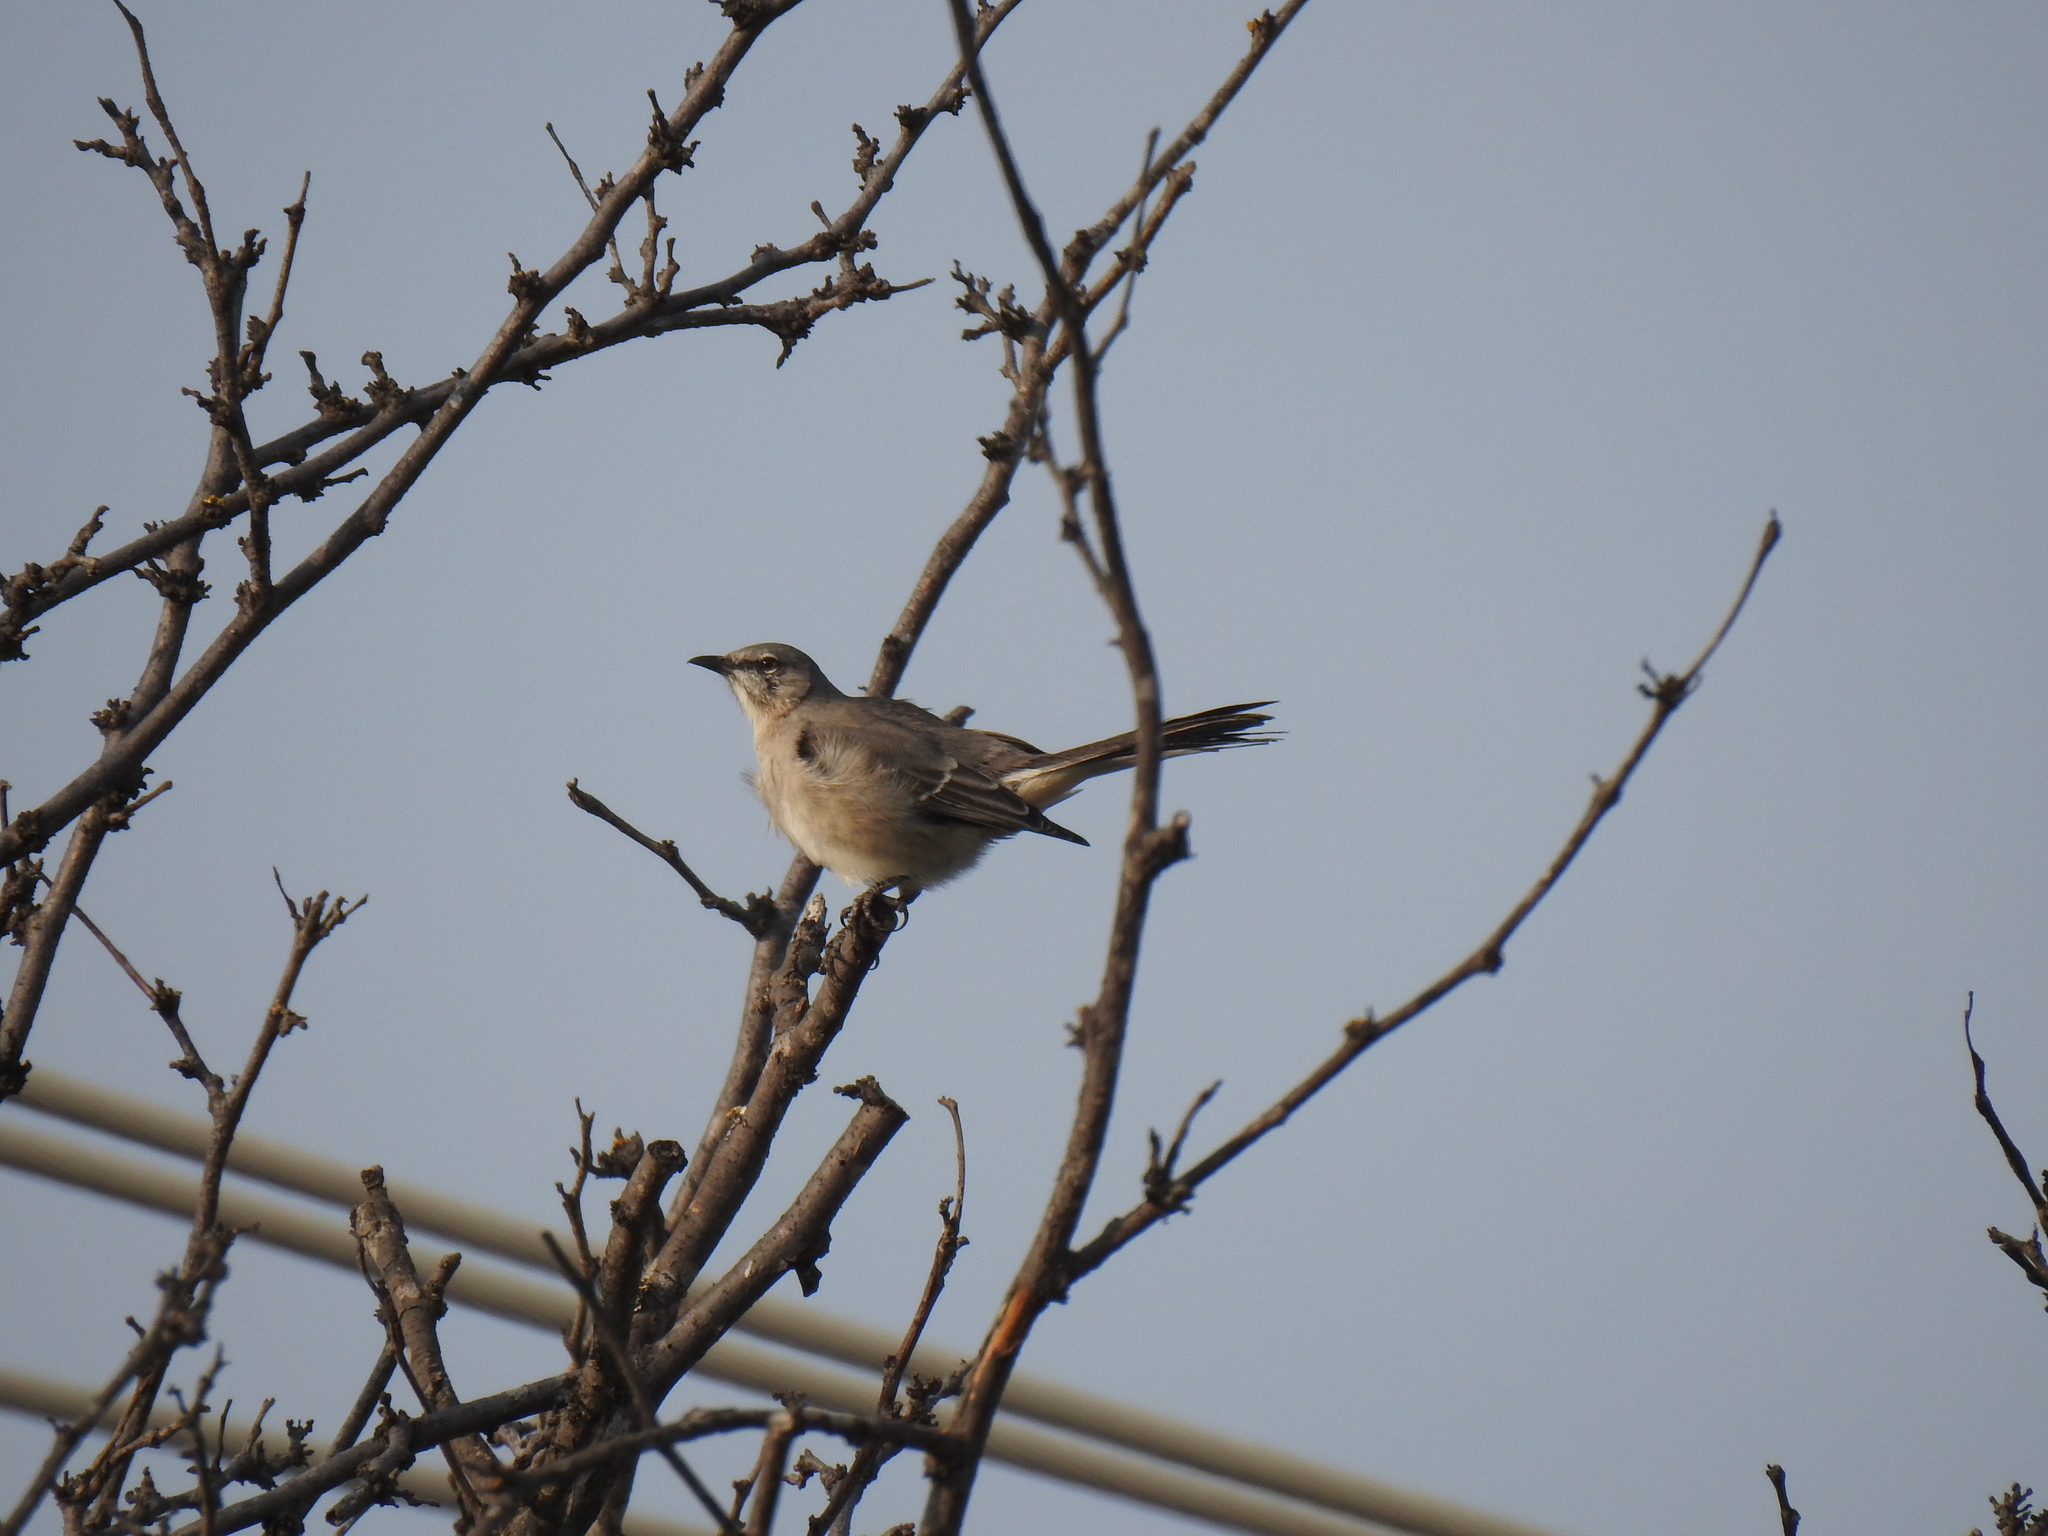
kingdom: Animalia
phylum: Chordata
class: Aves
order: Passeriformes
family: Mimidae
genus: Mimus
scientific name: Mimus polyglottos
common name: Northern mockingbird
